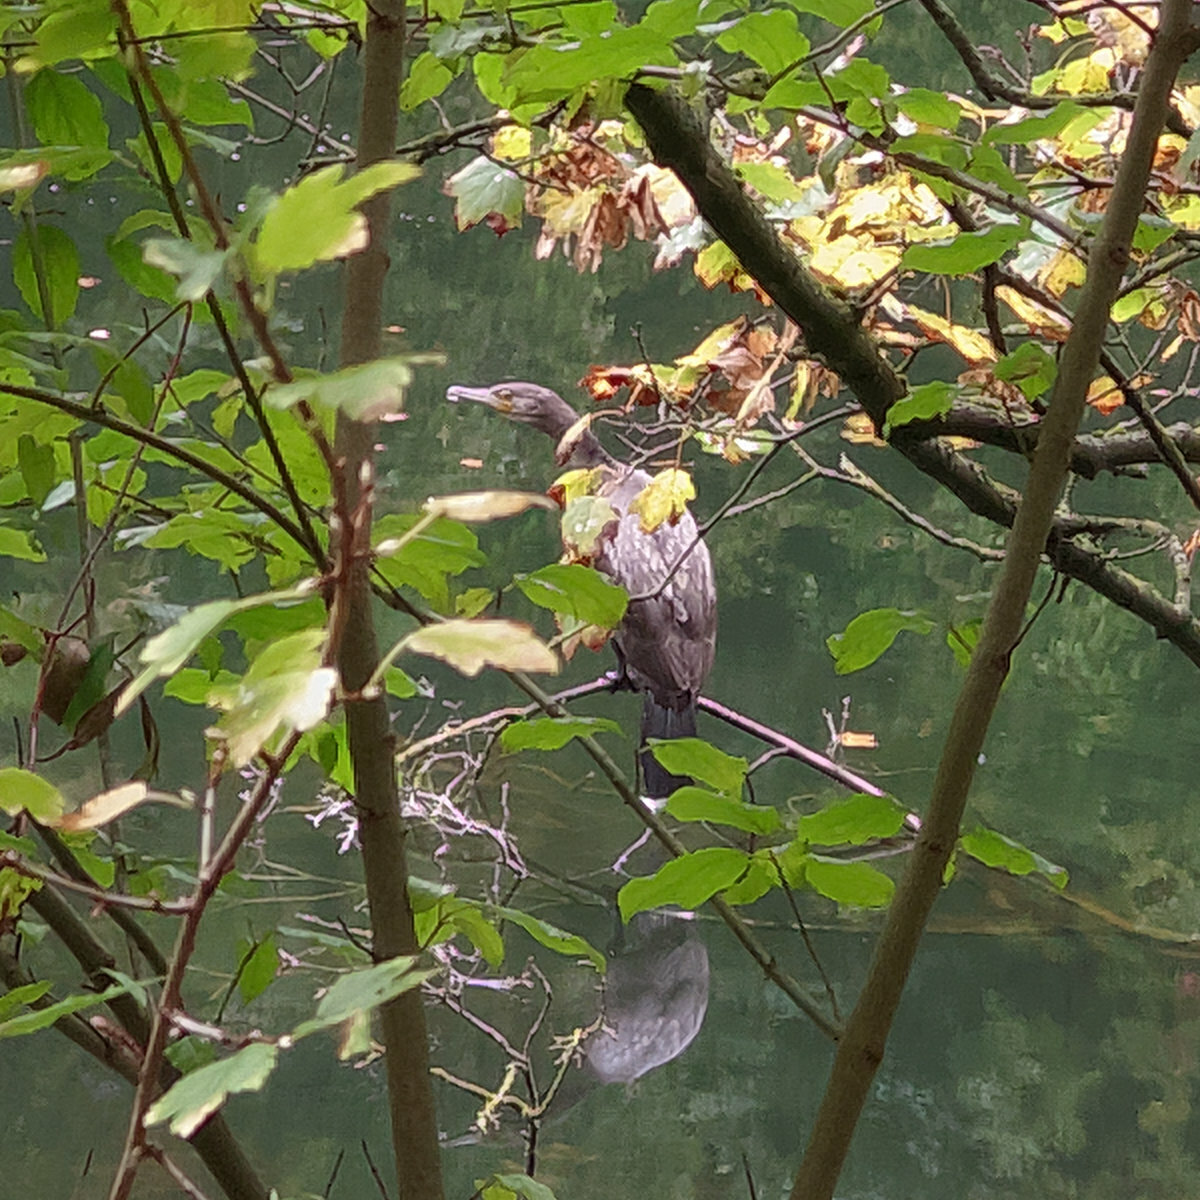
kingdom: Animalia
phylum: Chordata
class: Aves
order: Suliformes
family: Phalacrocoracidae
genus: Phalacrocorax
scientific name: Phalacrocorax carbo
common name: Great cormorant
